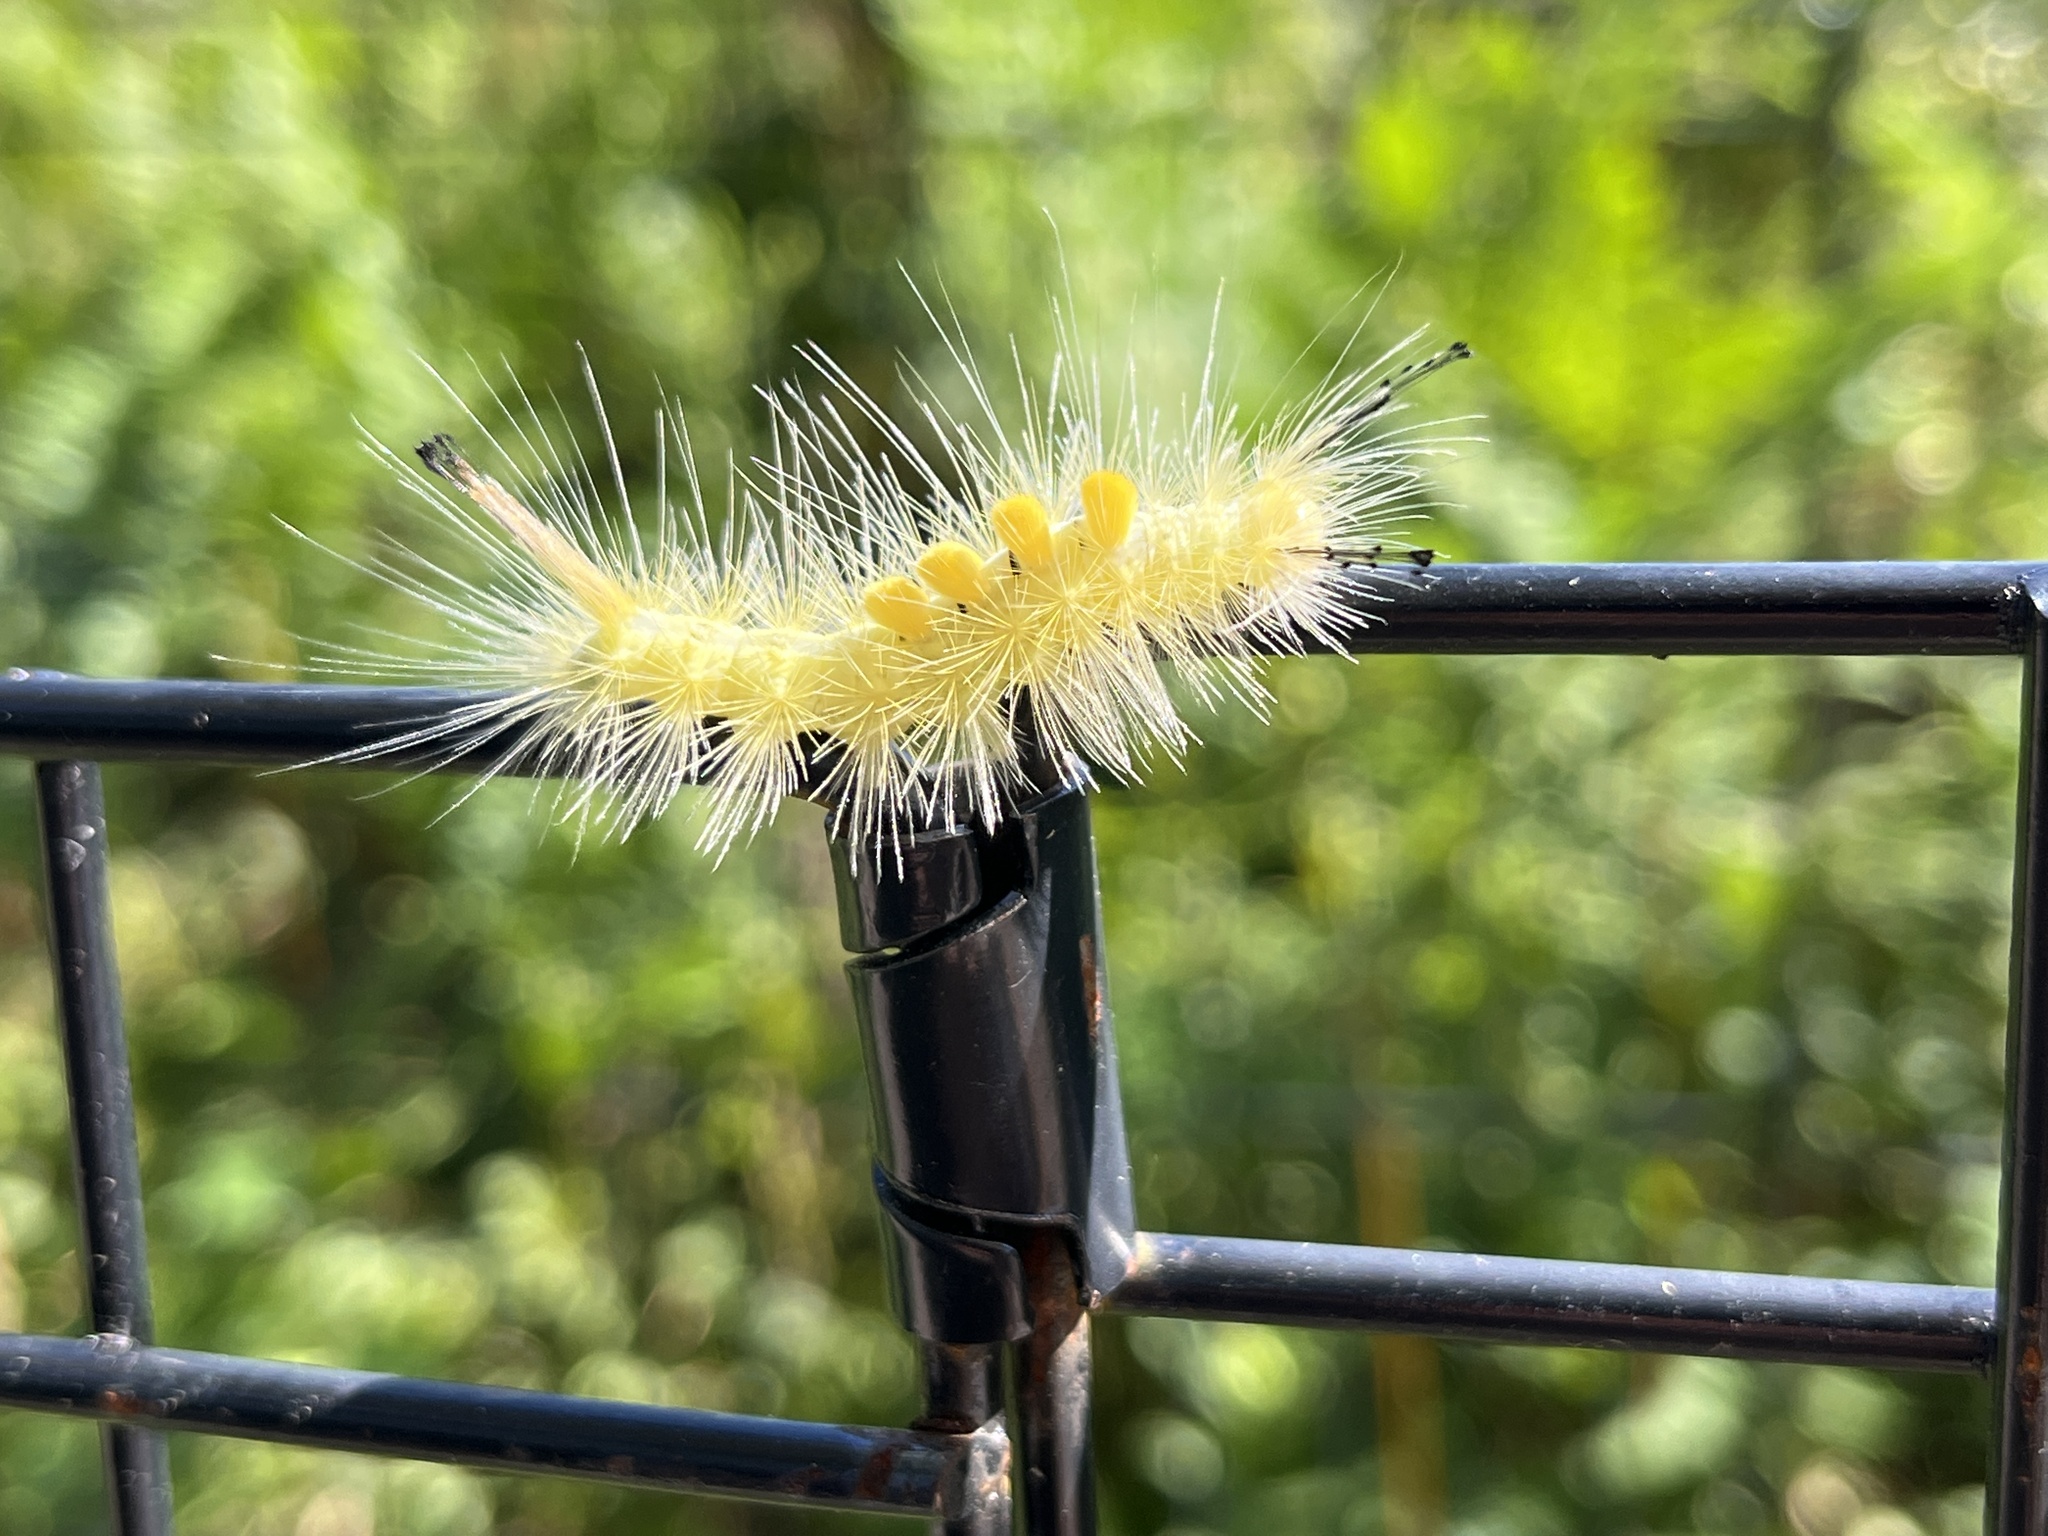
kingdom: Animalia
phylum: Arthropoda
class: Insecta
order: Lepidoptera
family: Erebidae
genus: Orgyia
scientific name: Orgyia definita
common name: Definite tussock moth
